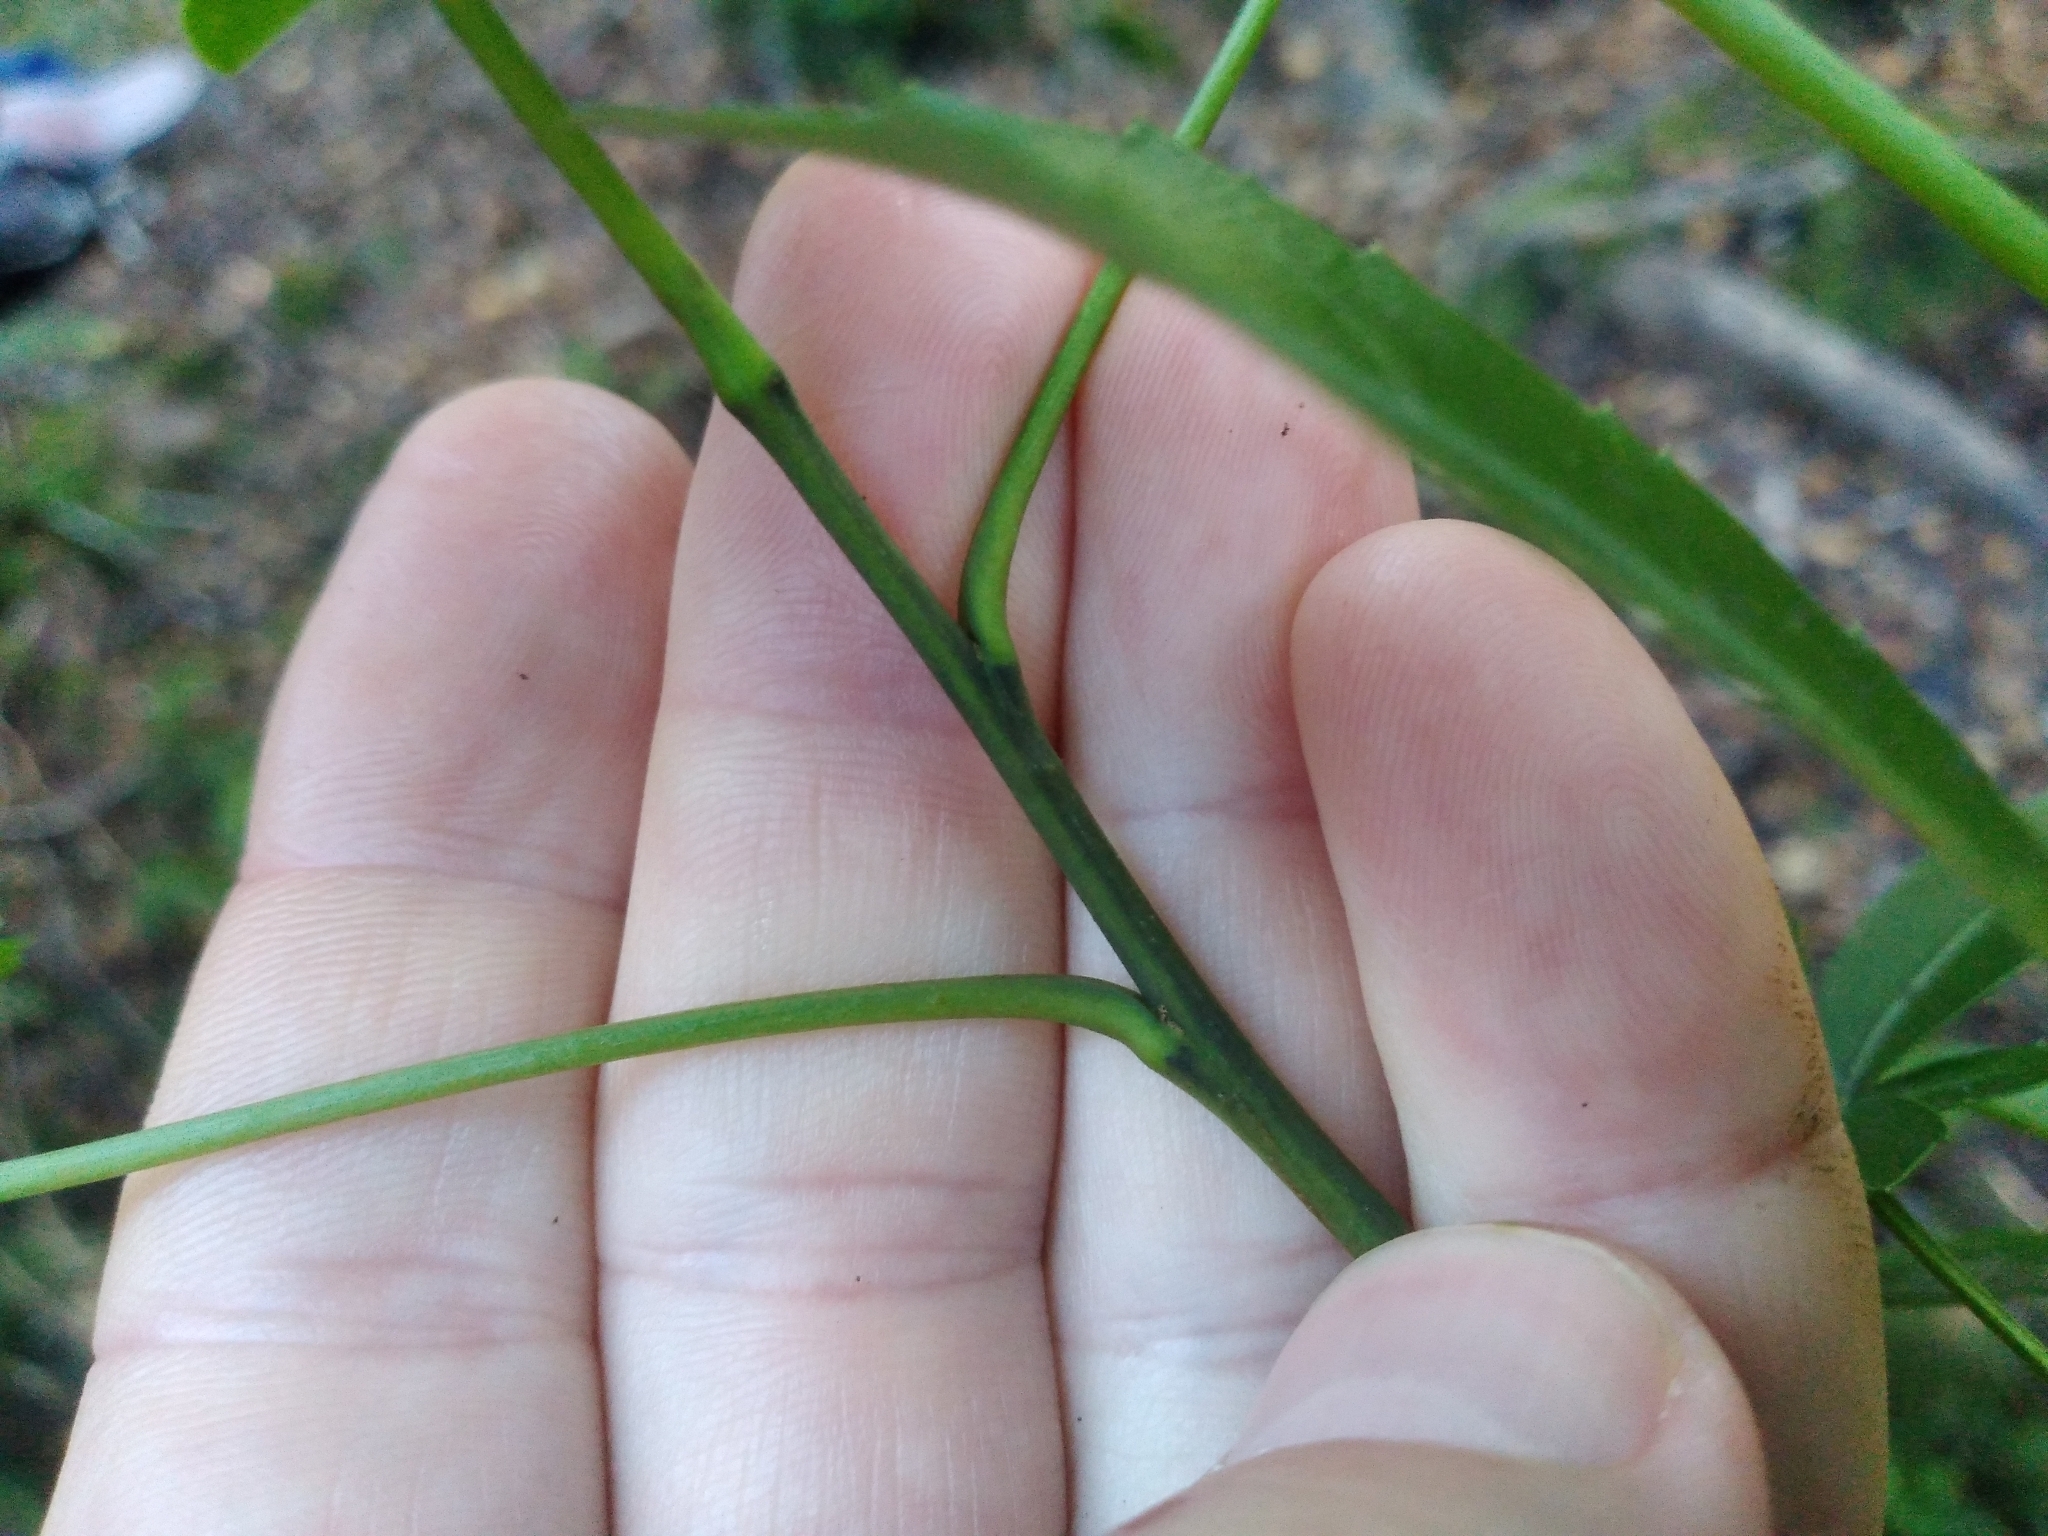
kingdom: Plantae
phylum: Tracheophyta
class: Magnoliopsida
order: Apiales
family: Araliaceae
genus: Raukaua
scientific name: Raukaua simplex
